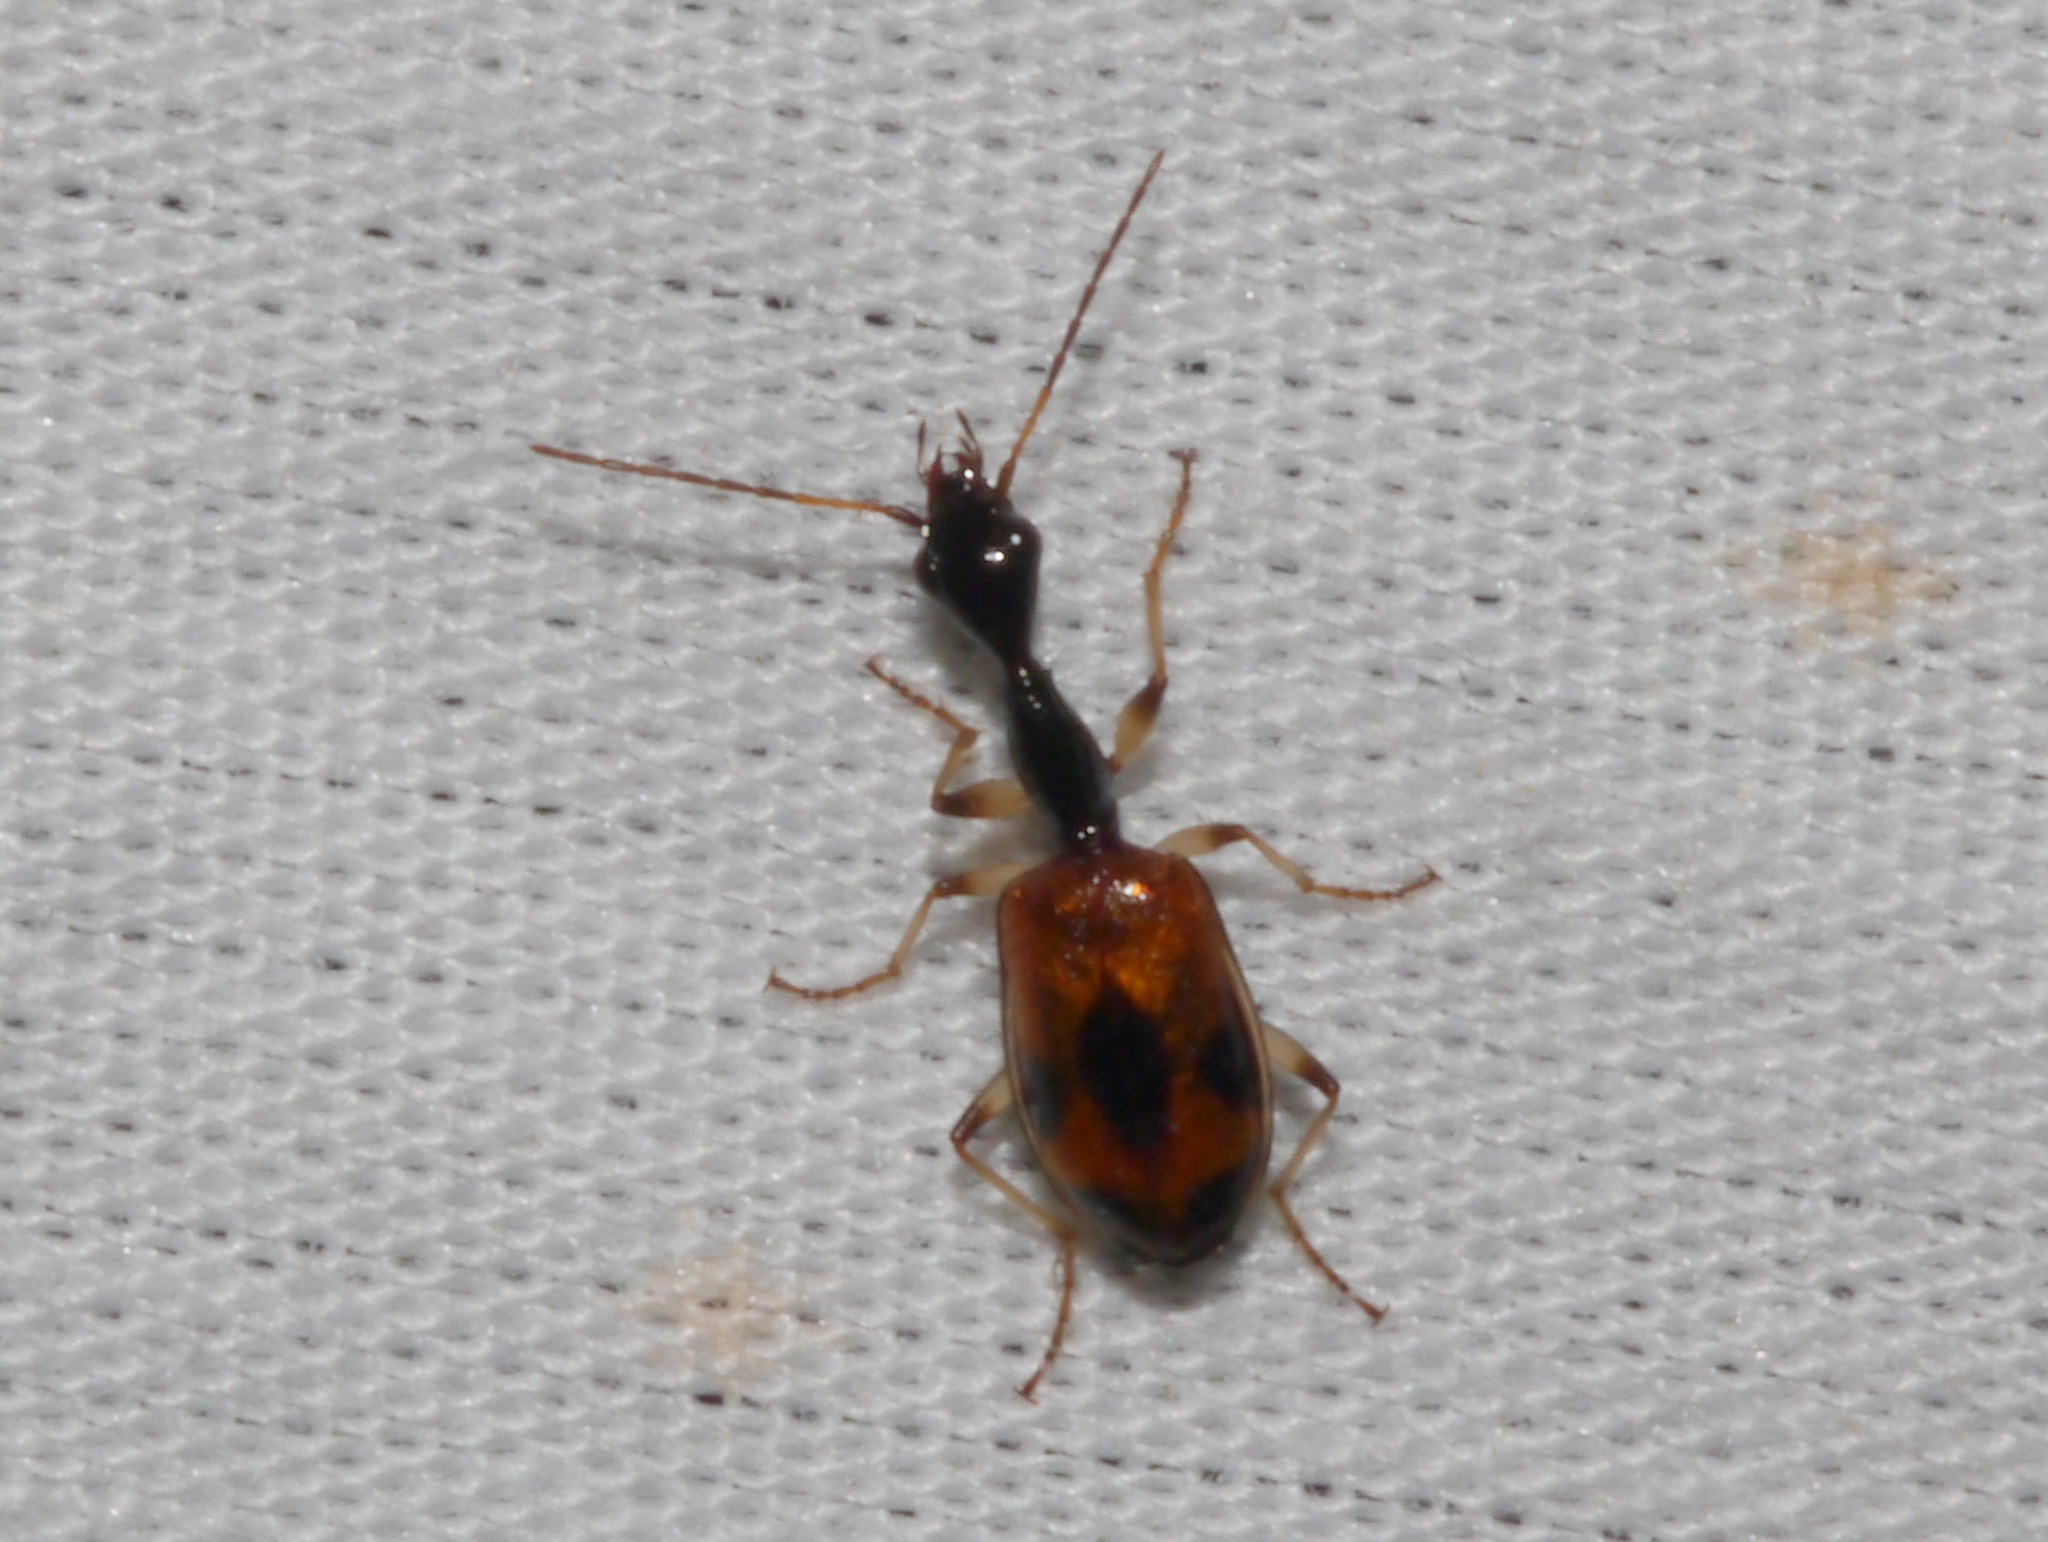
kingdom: Animalia
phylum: Arthropoda
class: Insecta
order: Coleoptera
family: Carabidae
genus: Colliuris
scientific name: Colliuris pensylvanica
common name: Long-necked ground beetle
